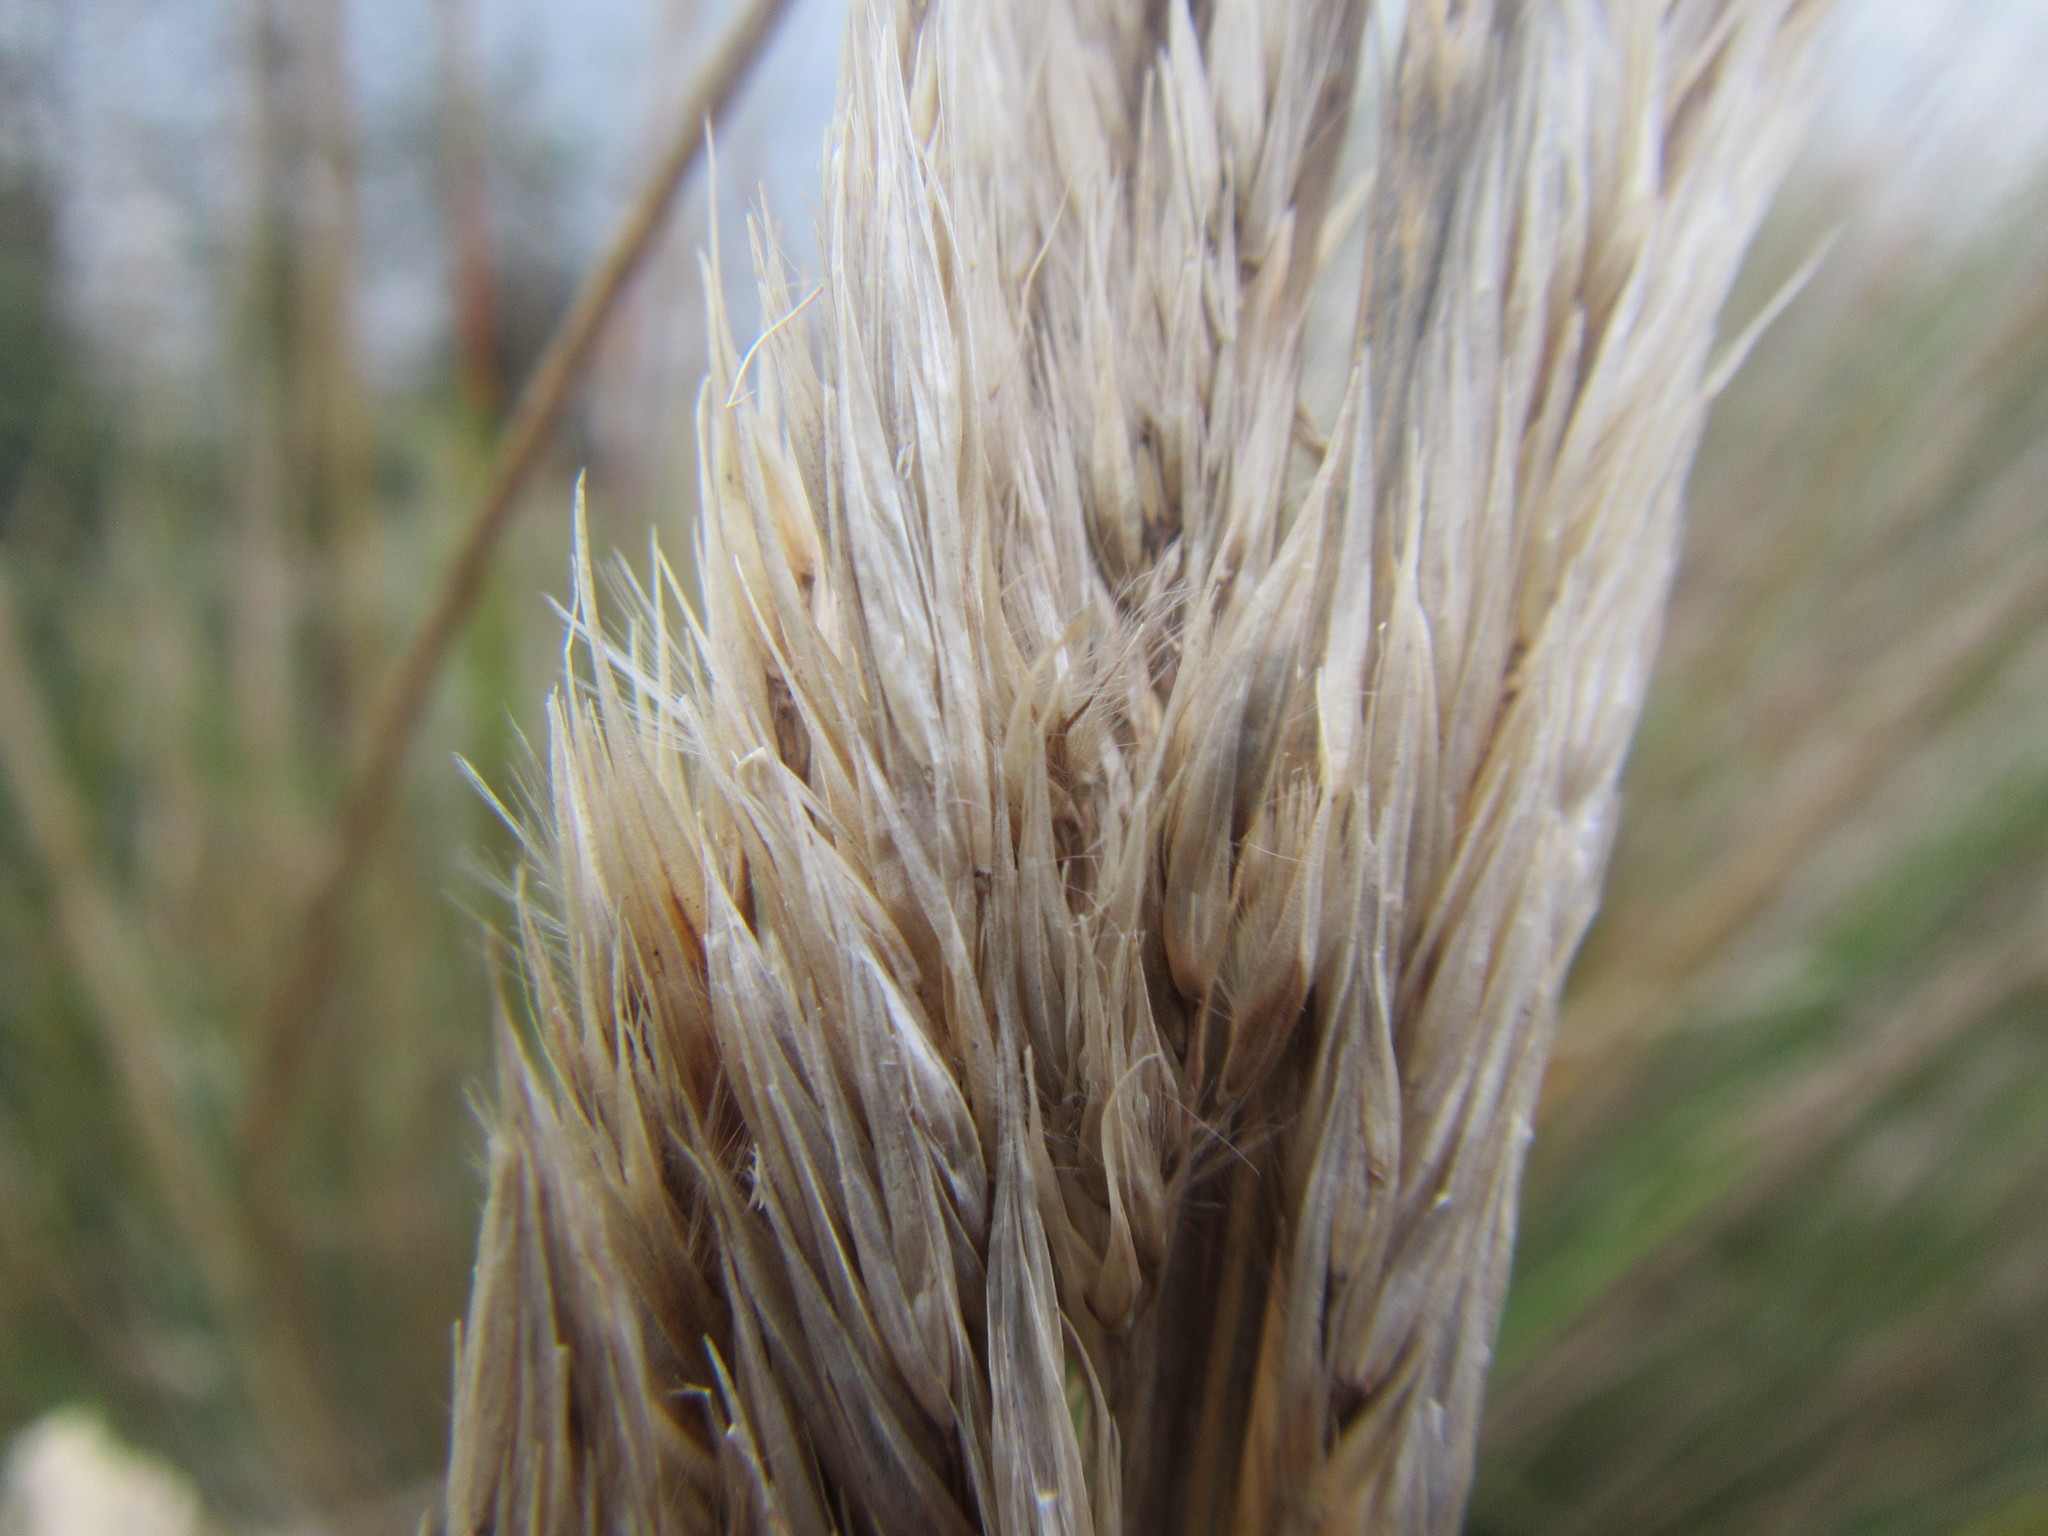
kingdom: Plantae
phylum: Tracheophyta
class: Liliopsida
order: Poales
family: Poaceae
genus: Capeochloa
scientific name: Capeochloa cincta
